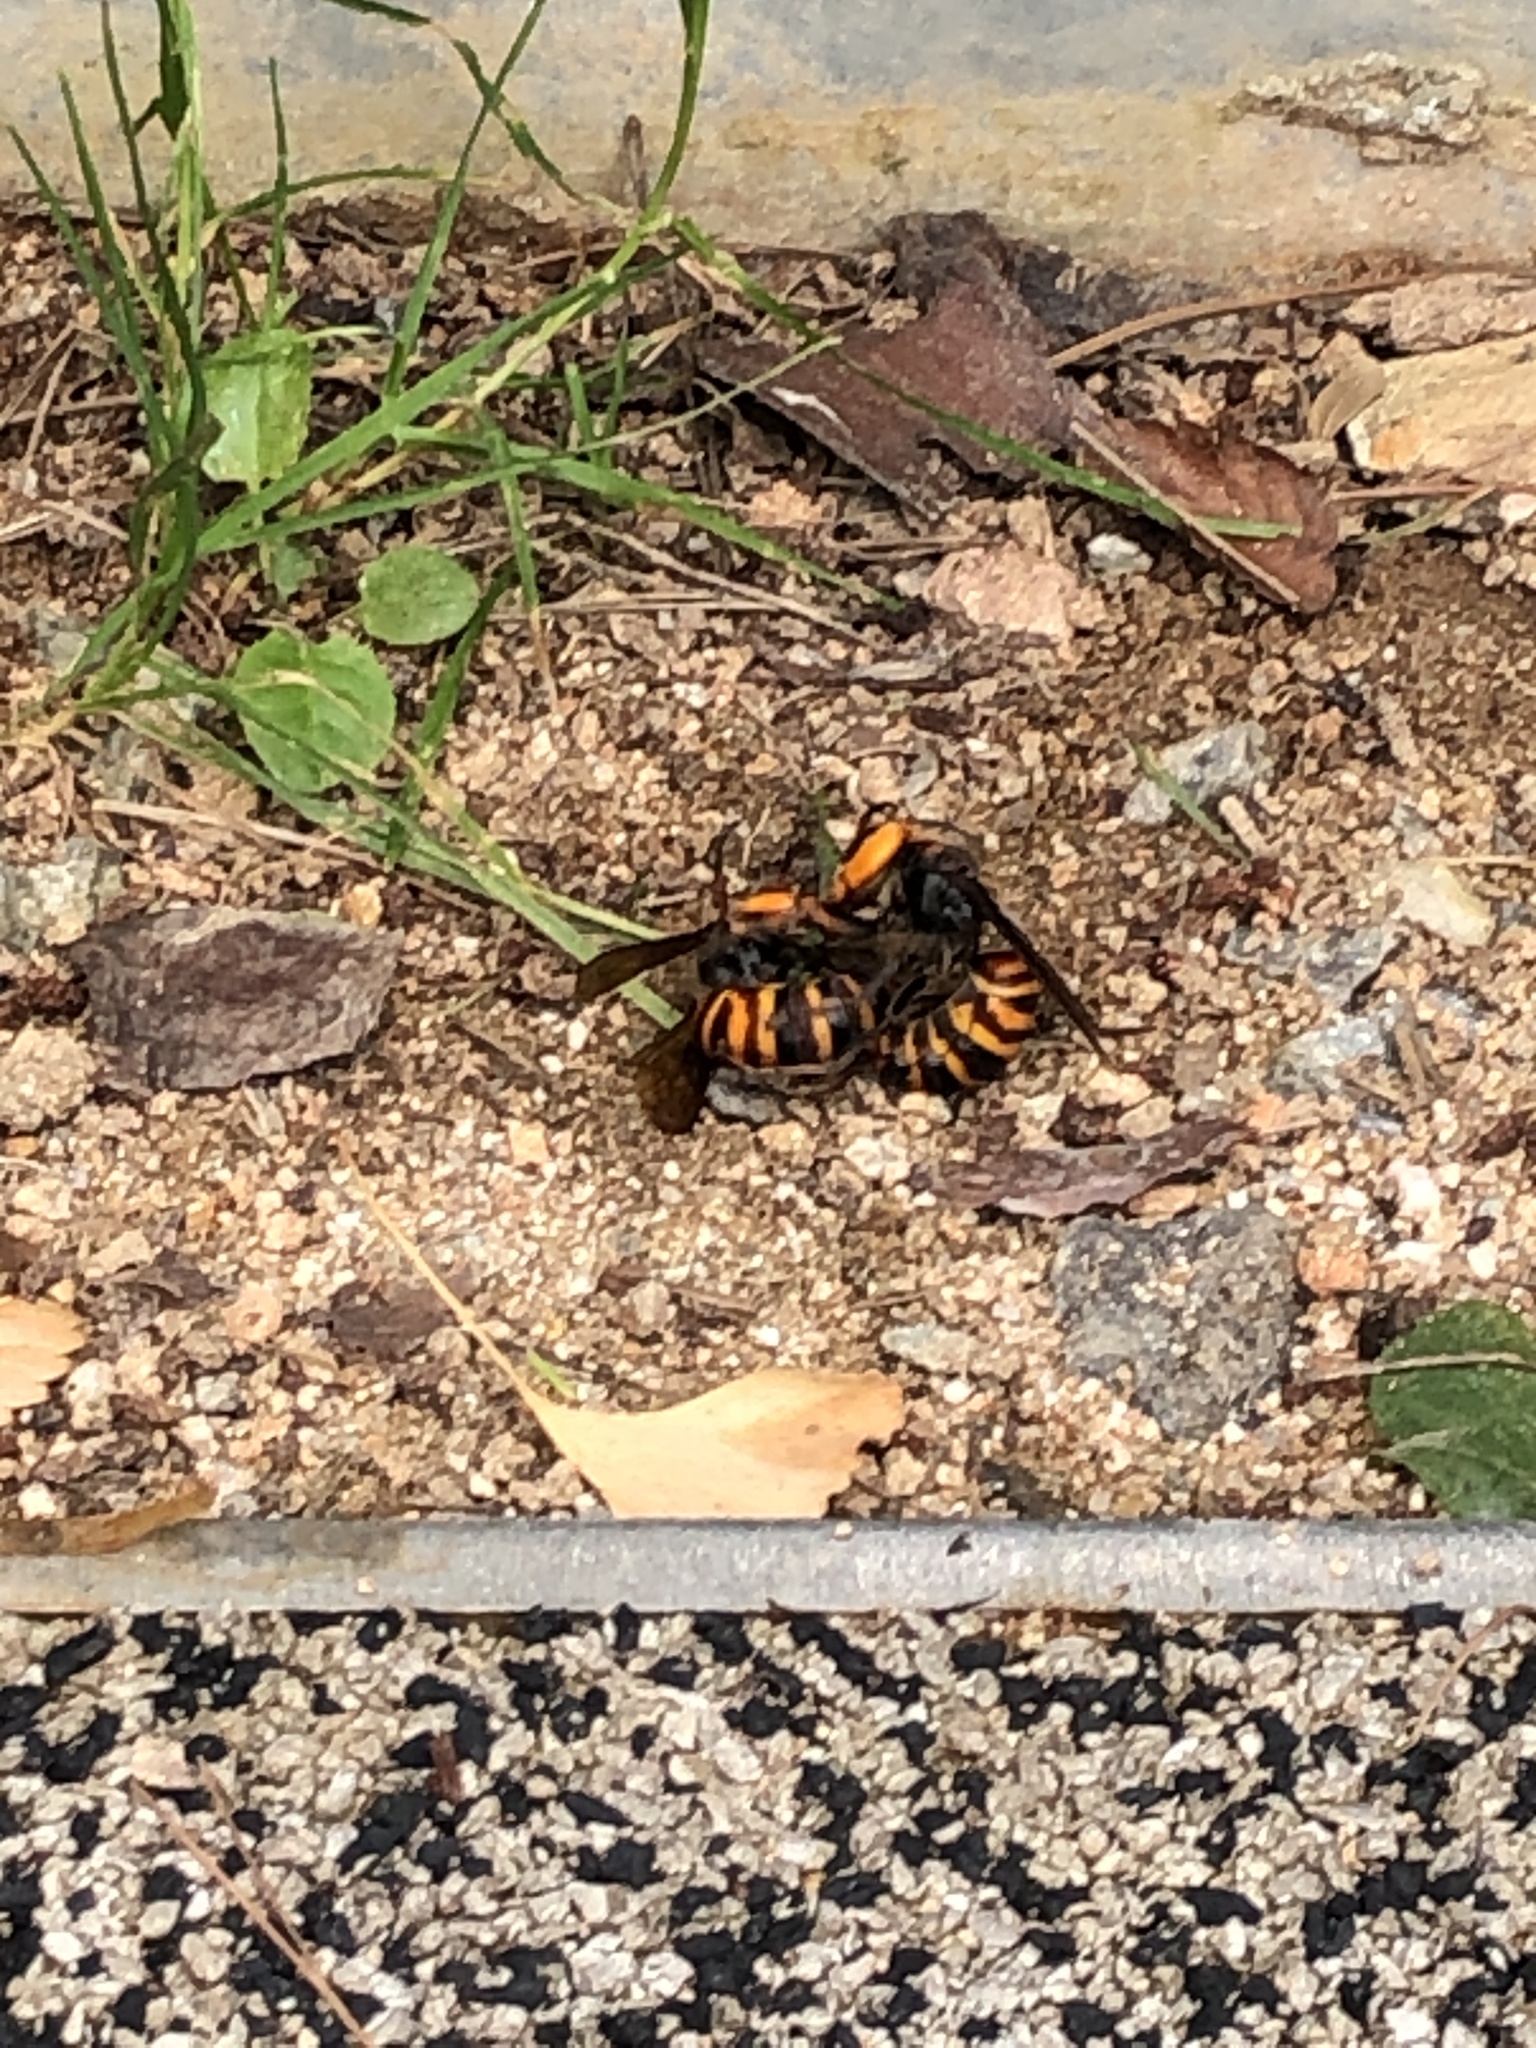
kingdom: Animalia
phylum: Arthropoda
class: Insecta
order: Hymenoptera
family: Vespidae
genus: Vespa
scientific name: Vespa mandarinia
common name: Asian giant hornet
